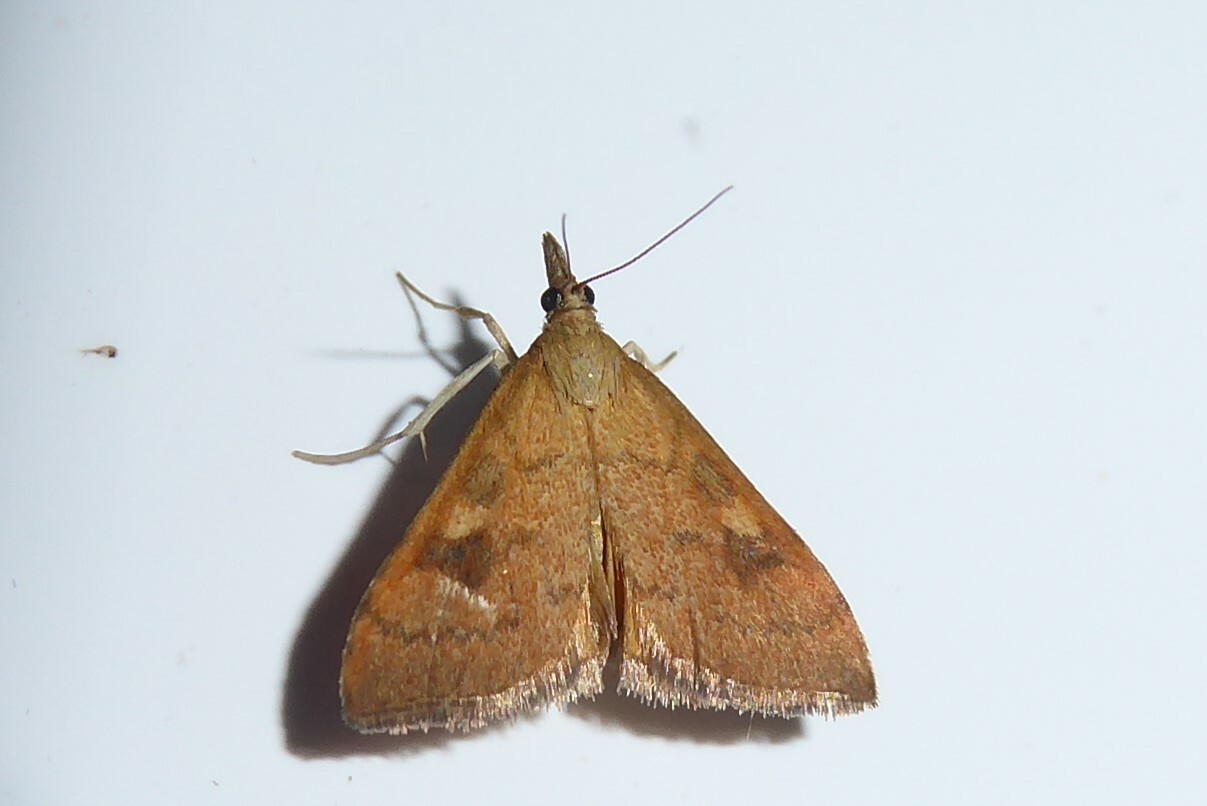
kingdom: Animalia
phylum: Arthropoda
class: Insecta
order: Lepidoptera
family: Crambidae
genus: Udea
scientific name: Udea Mnesictena flavidalis
